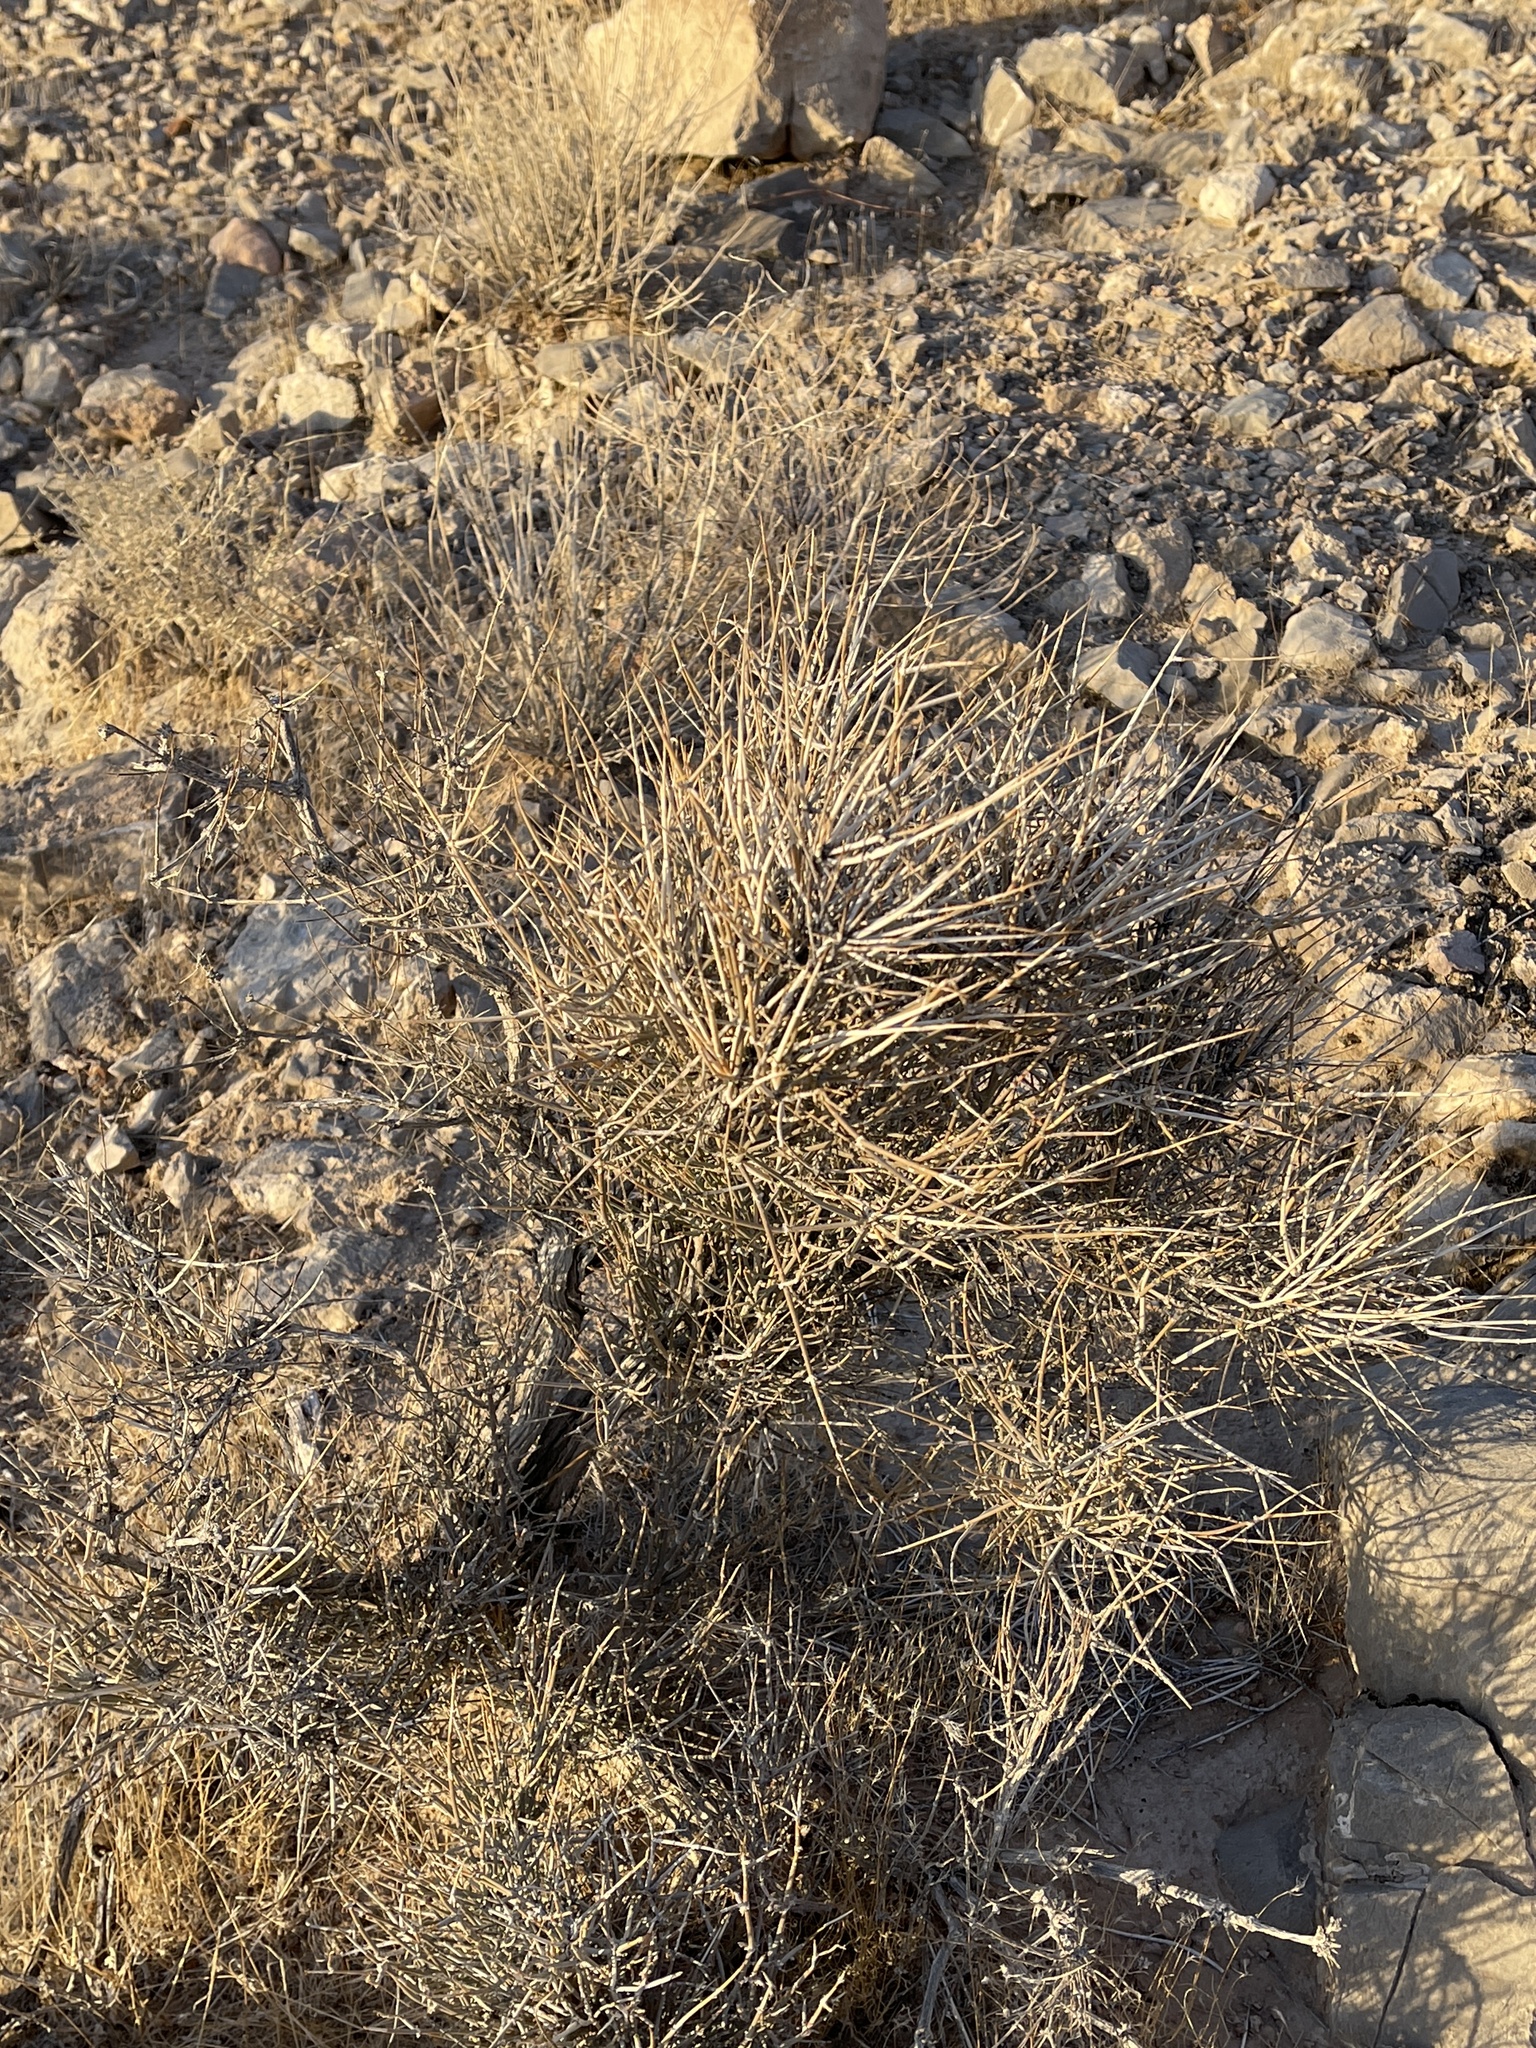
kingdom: Plantae
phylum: Tracheophyta
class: Gnetopsida
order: Ephedrales
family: Ephedraceae
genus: Ephedra
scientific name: Ephedra nevadensis
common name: Gray ephedra
